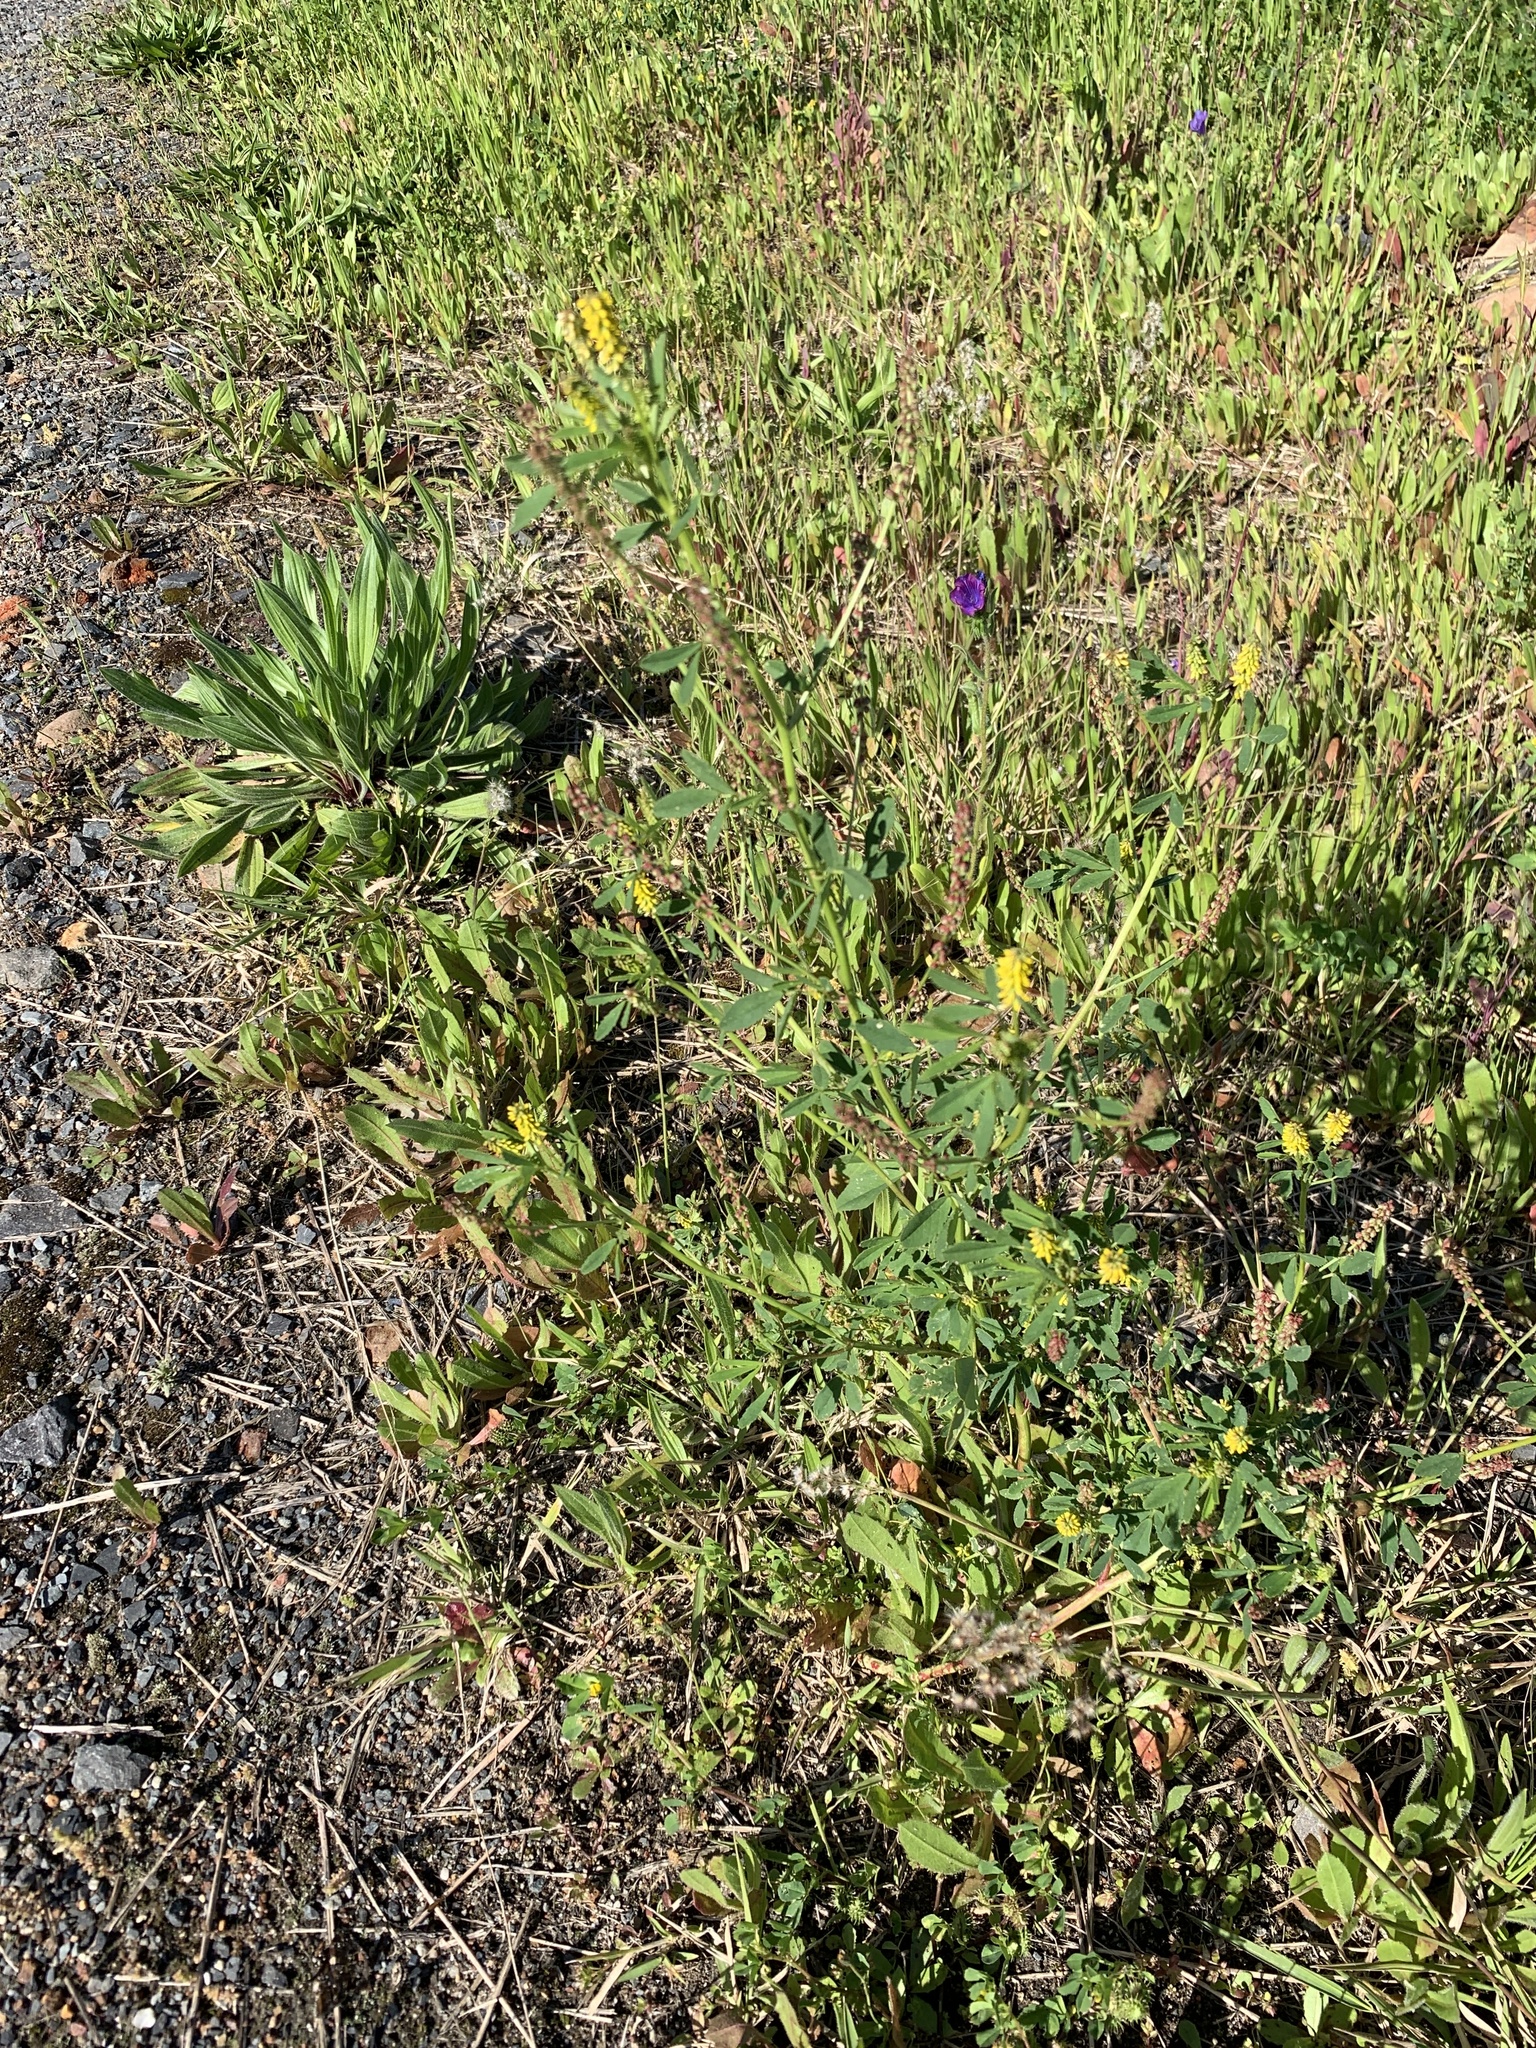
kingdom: Plantae
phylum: Tracheophyta
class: Magnoliopsida
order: Fabales
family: Fabaceae
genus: Melilotus
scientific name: Melilotus indicus
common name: Small melilot
